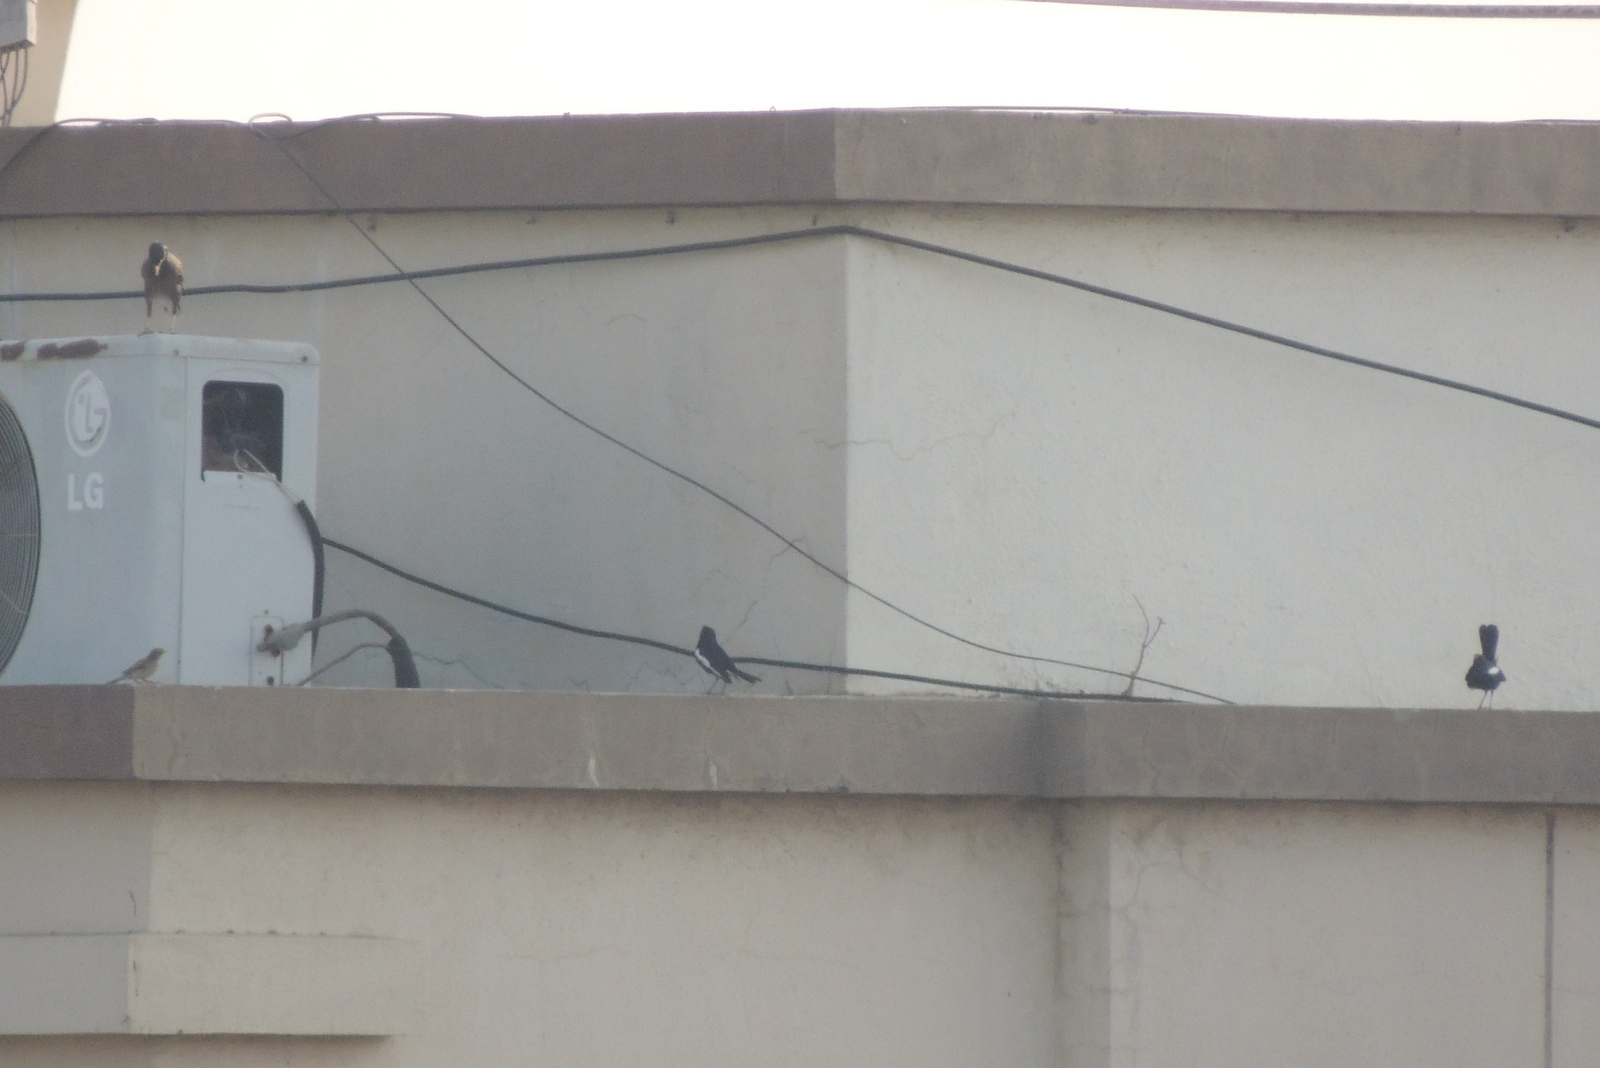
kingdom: Animalia
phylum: Chordata
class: Aves
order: Passeriformes
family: Muscicapidae
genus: Copsychus
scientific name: Copsychus saularis
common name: Oriental magpie-robin
